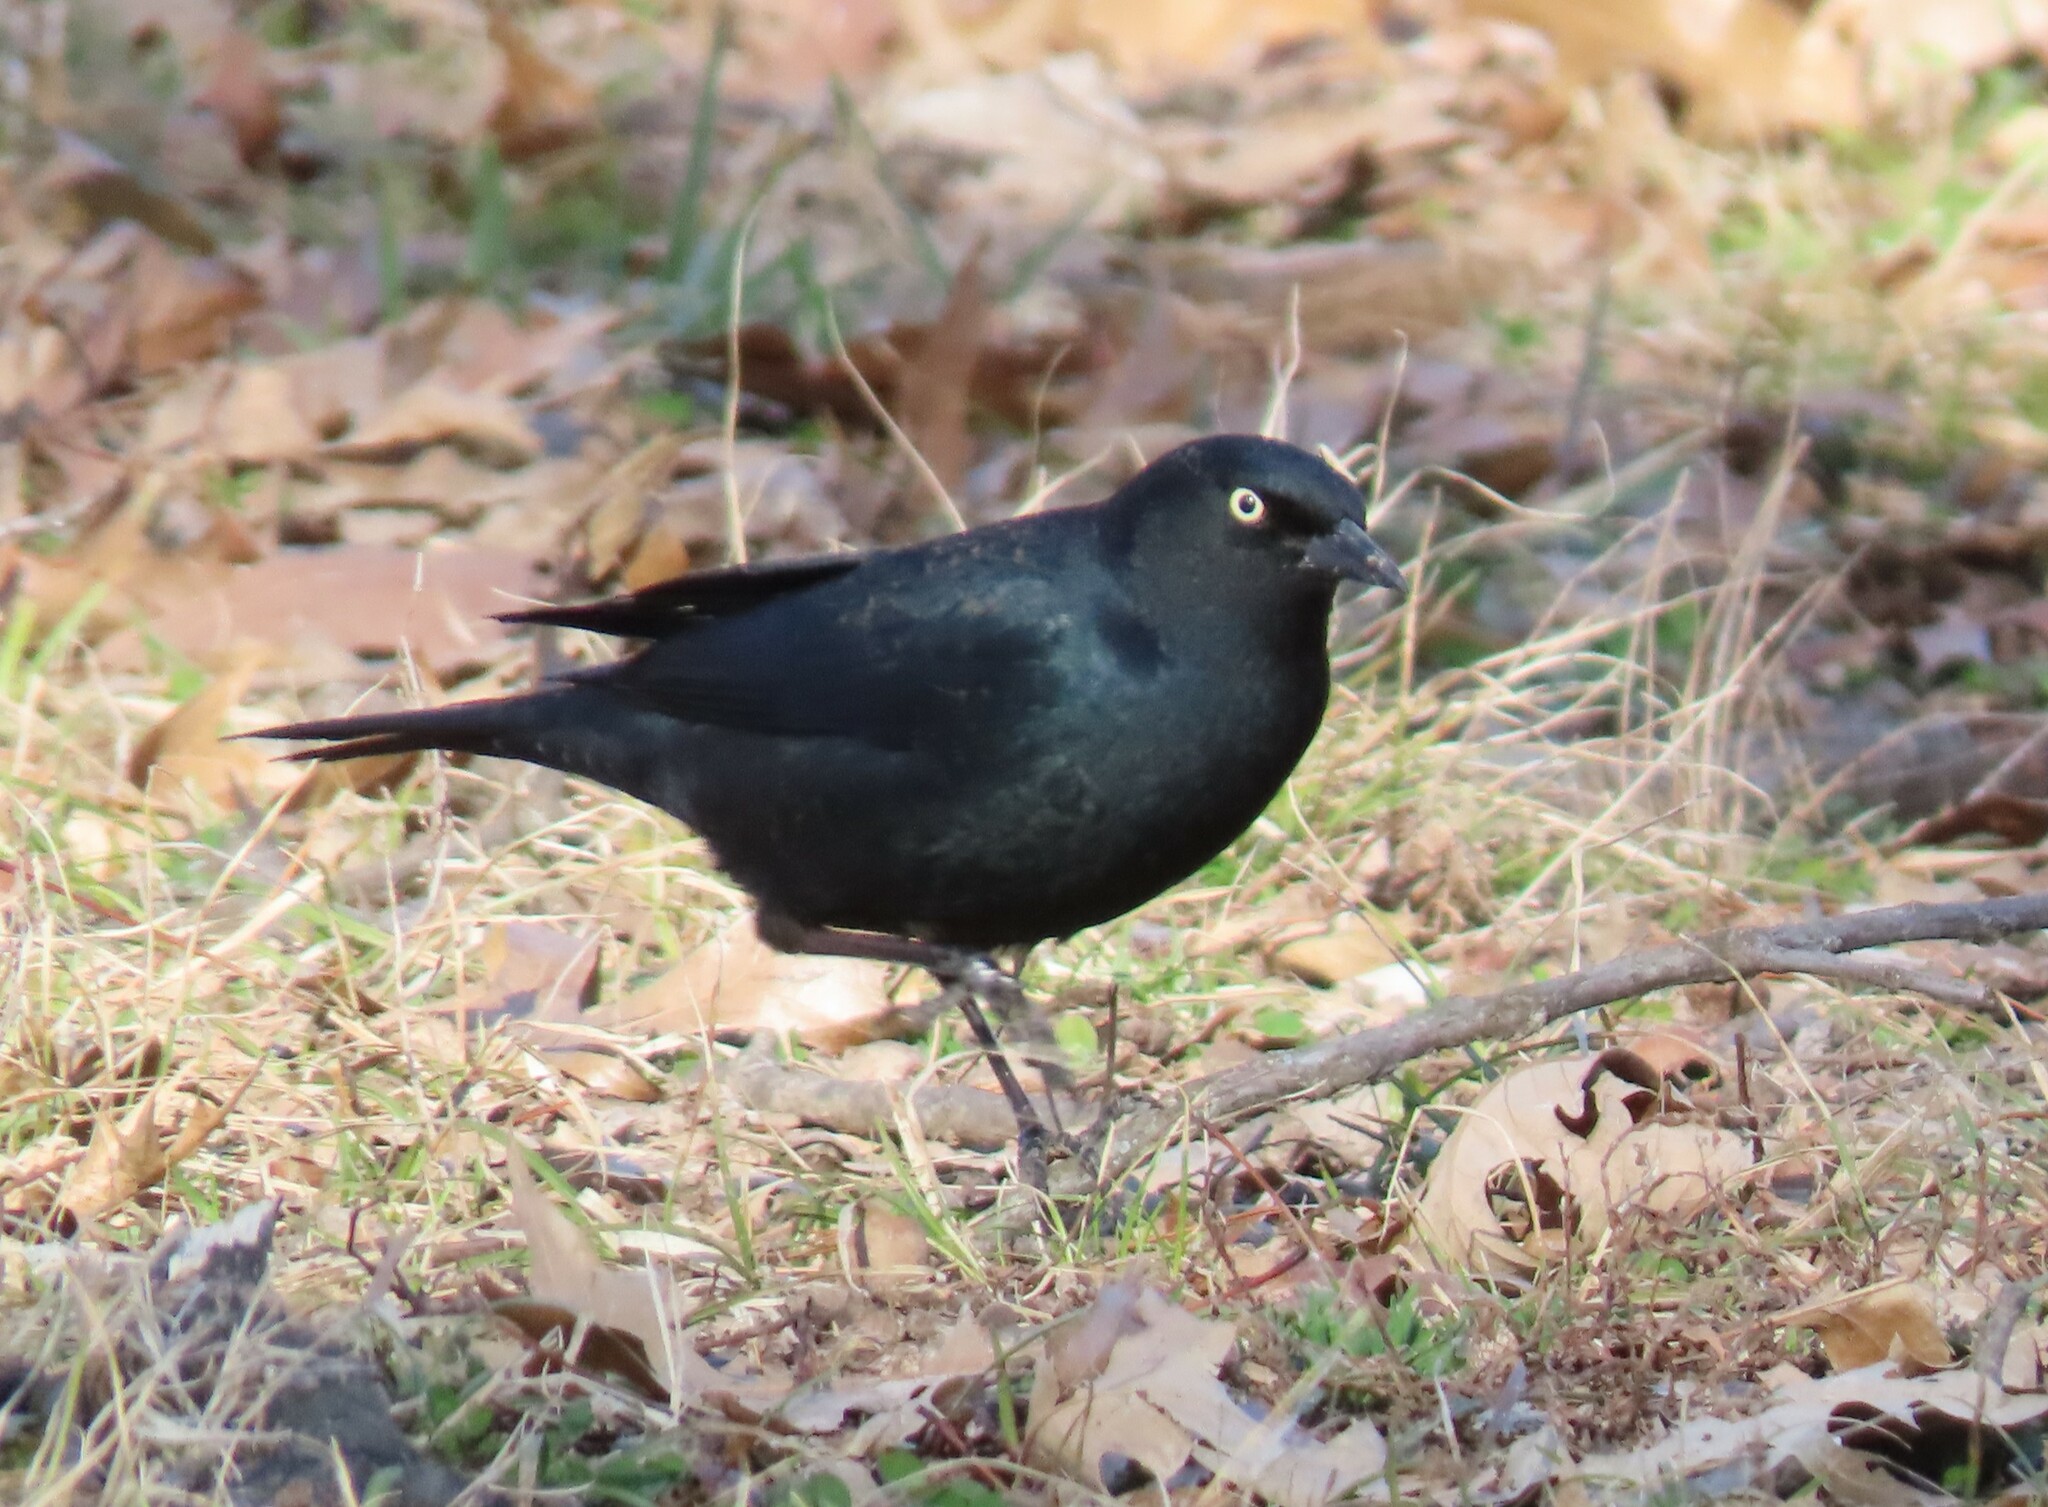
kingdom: Animalia
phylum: Chordata
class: Aves
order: Passeriformes
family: Icteridae
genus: Euphagus
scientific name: Euphagus carolinus
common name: Rusty blackbird
